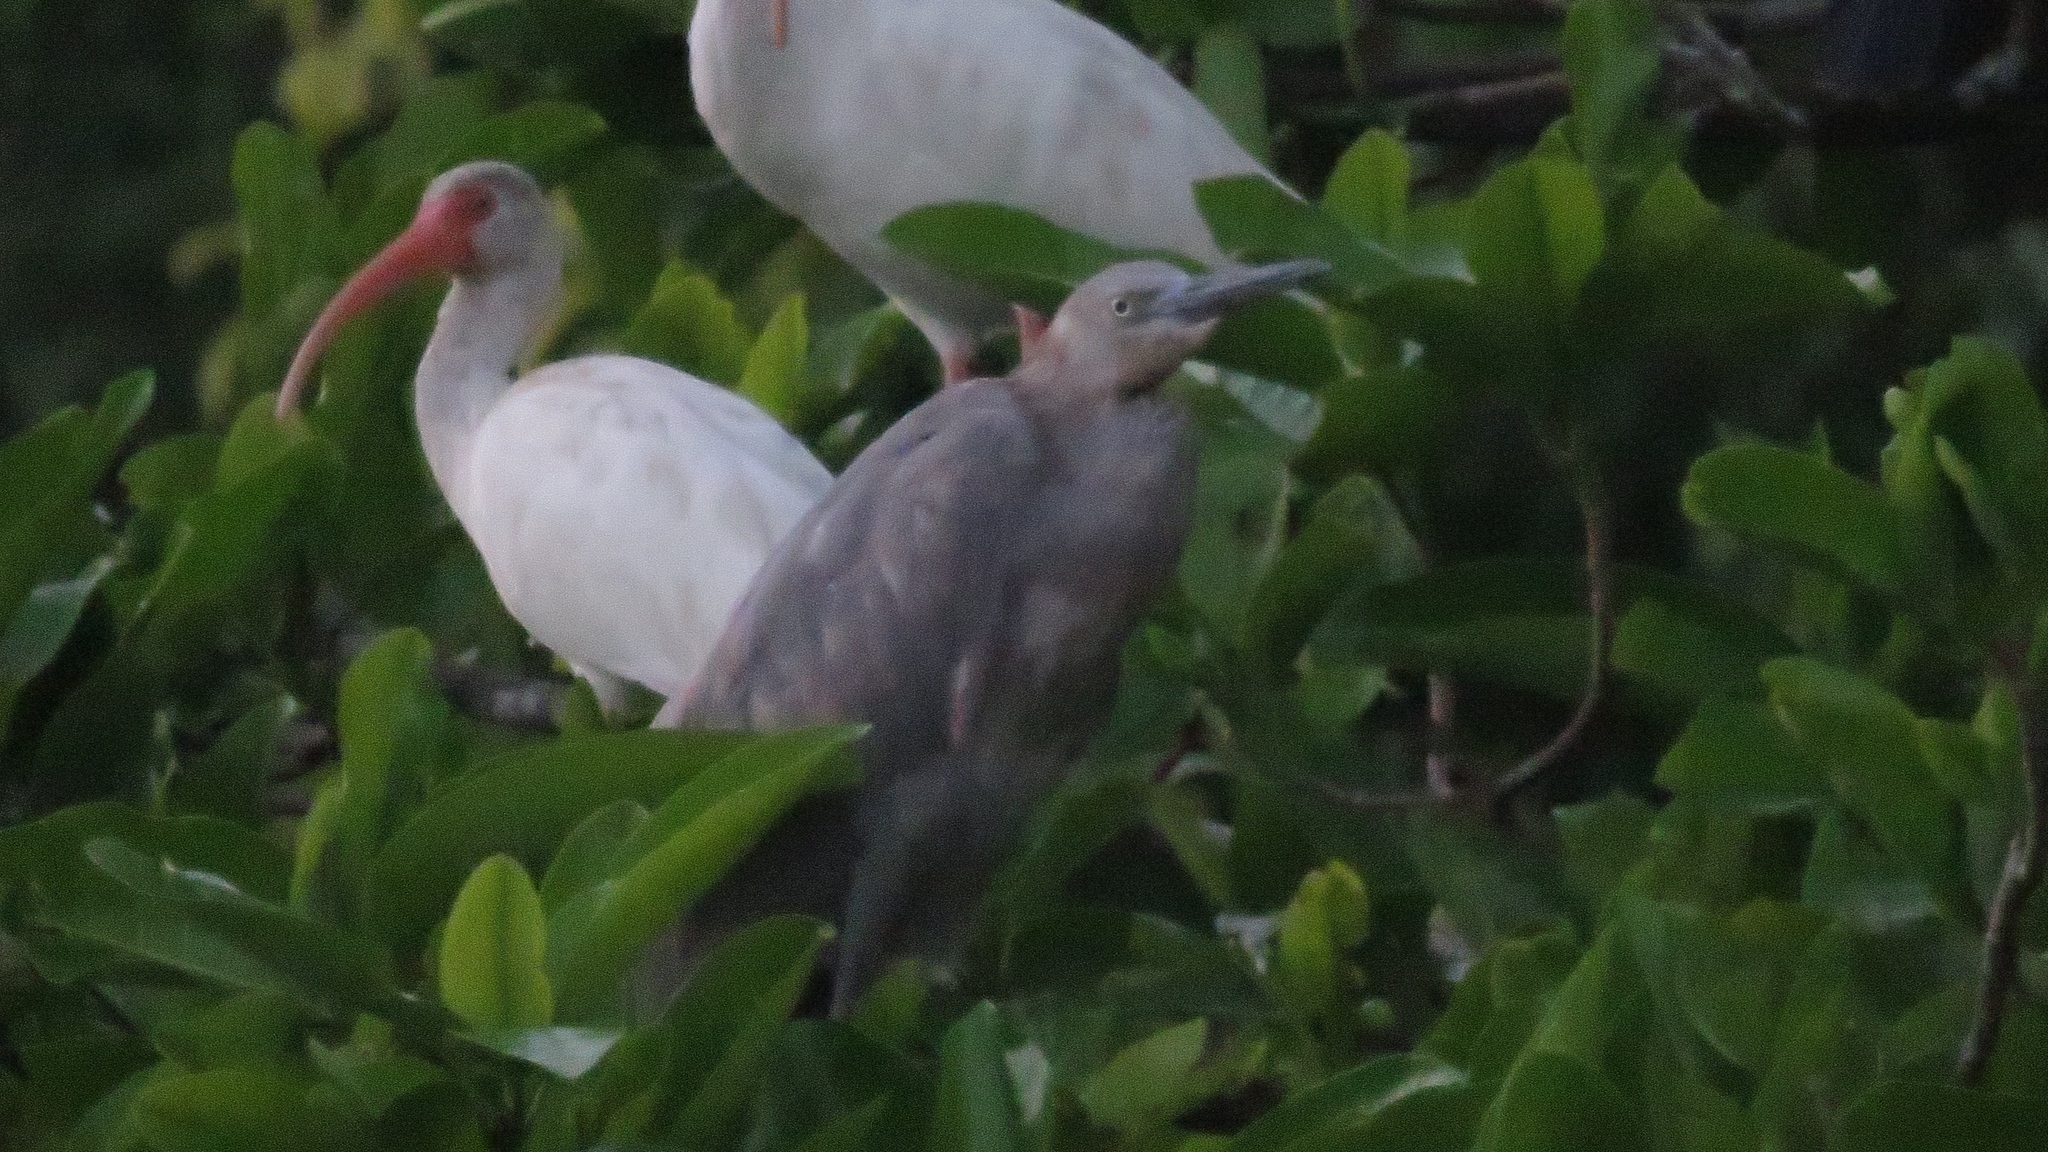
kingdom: Animalia
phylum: Chordata
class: Aves
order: Pelecaniformes
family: Ardeidae
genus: Egretta
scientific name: Egretta rufescens
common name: Reddish egret
